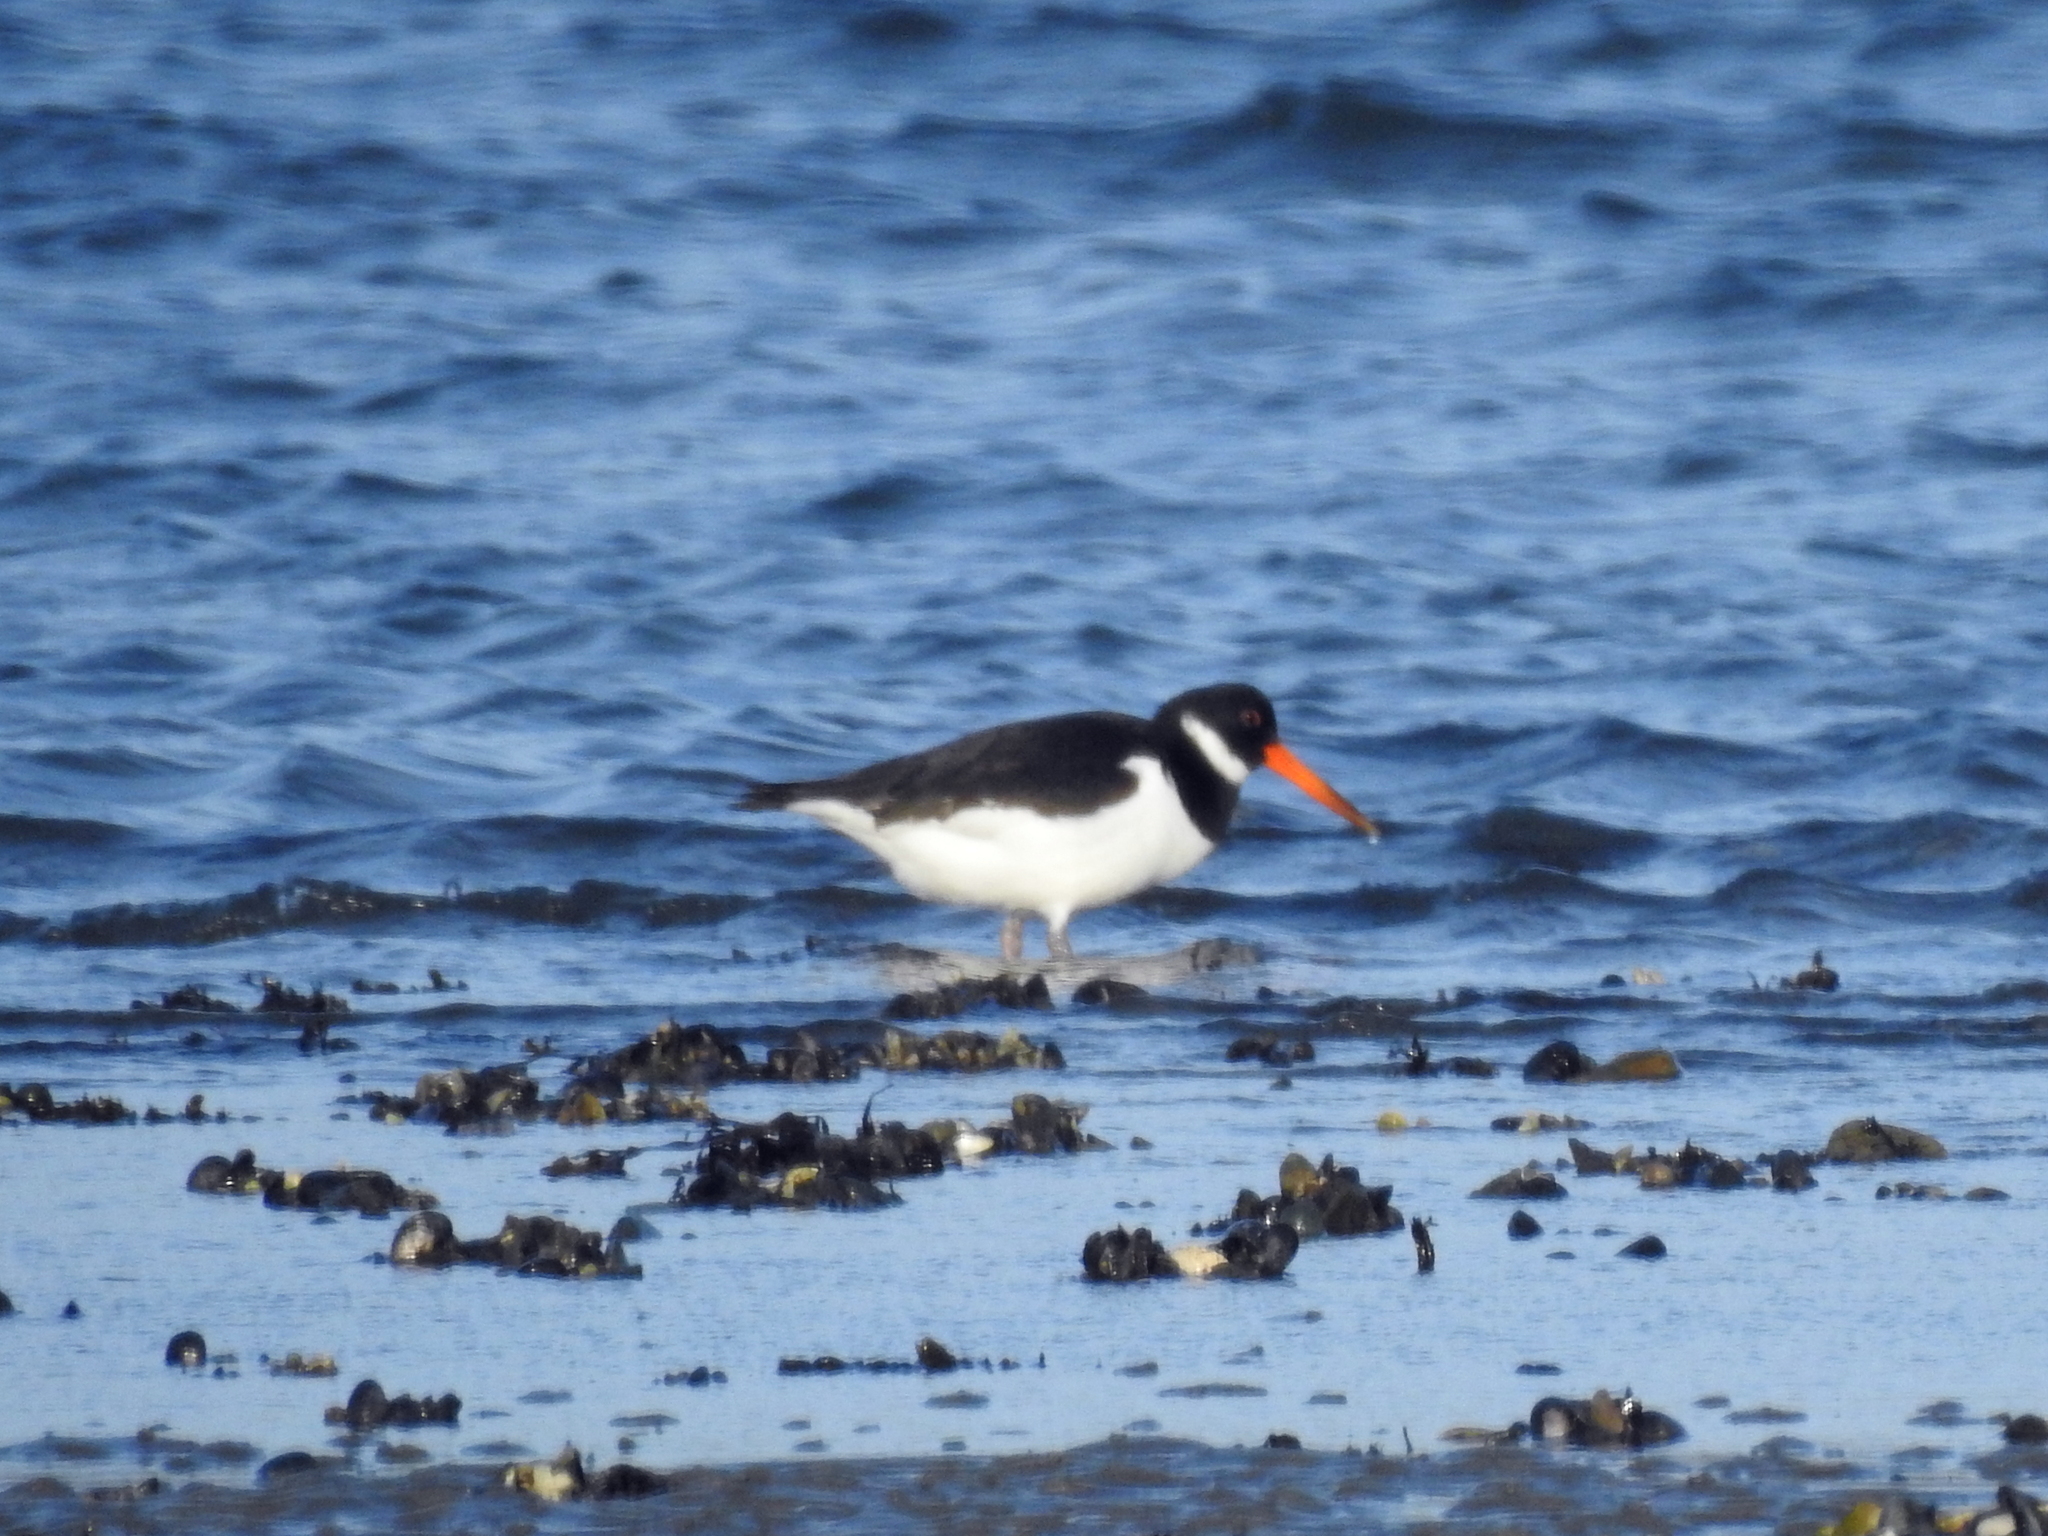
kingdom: Animalia
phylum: Chordata
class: Aves
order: Charadriiformes
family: Haematopodidae
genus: Haematopus
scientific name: Haematopus ostralegus
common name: Eurasian oystercatcher
